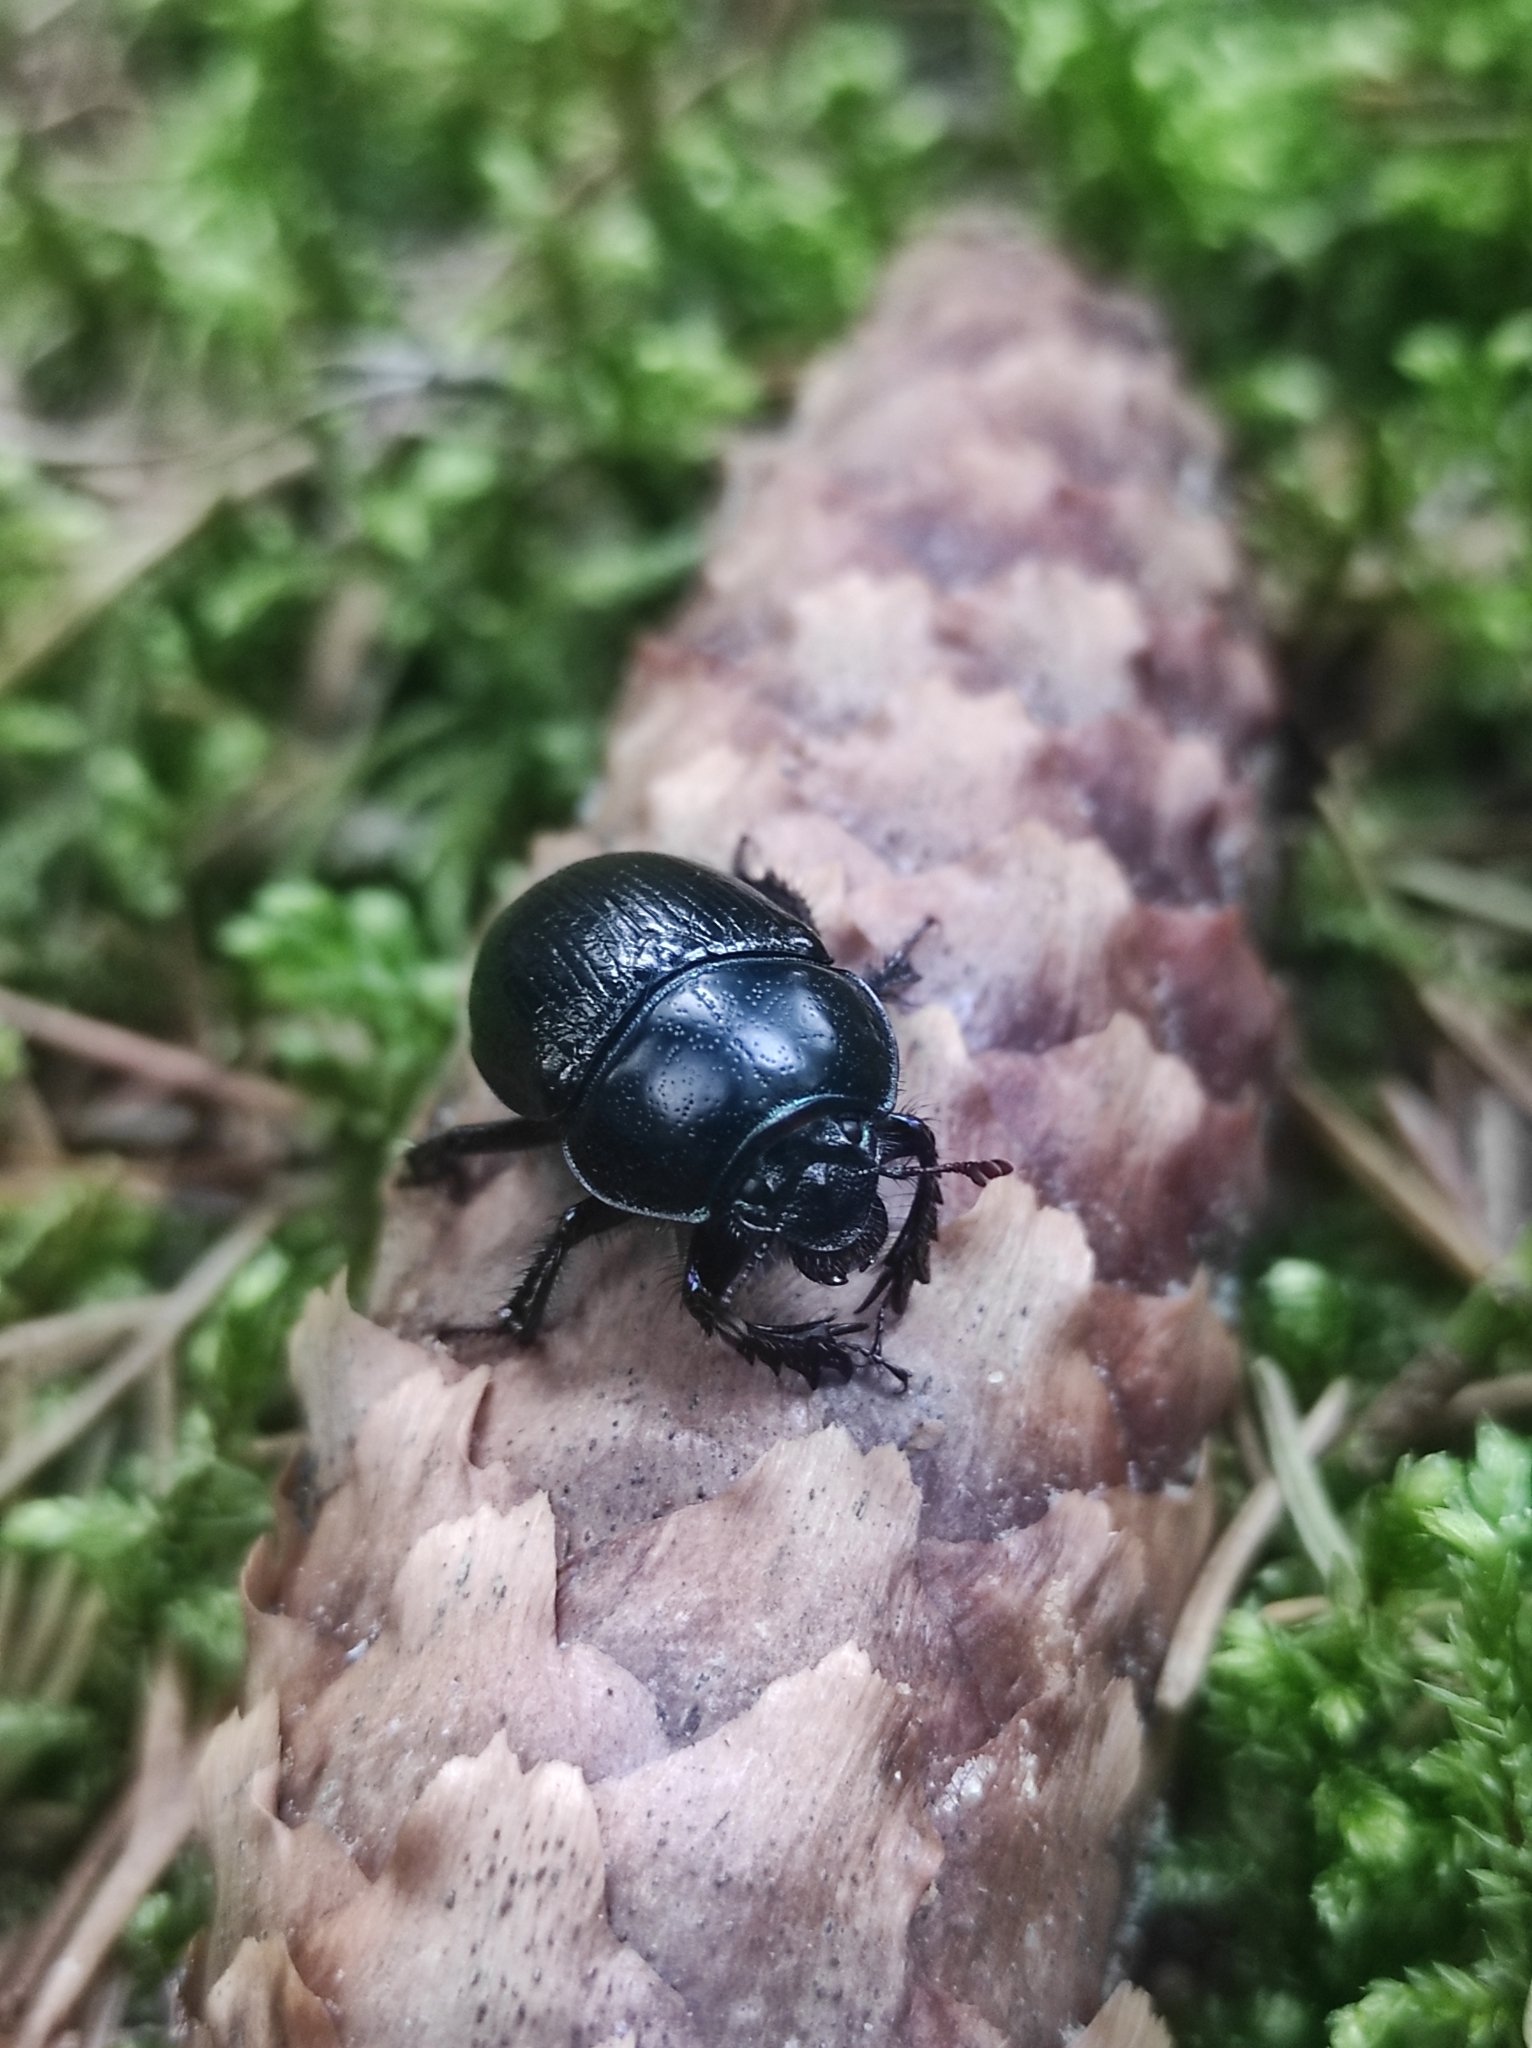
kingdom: Animalia
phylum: Arthropoda
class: Insecta
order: Coleoptera
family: Geotrupidae
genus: Anoplotrupes
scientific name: Anoplotrupes stercorosus
